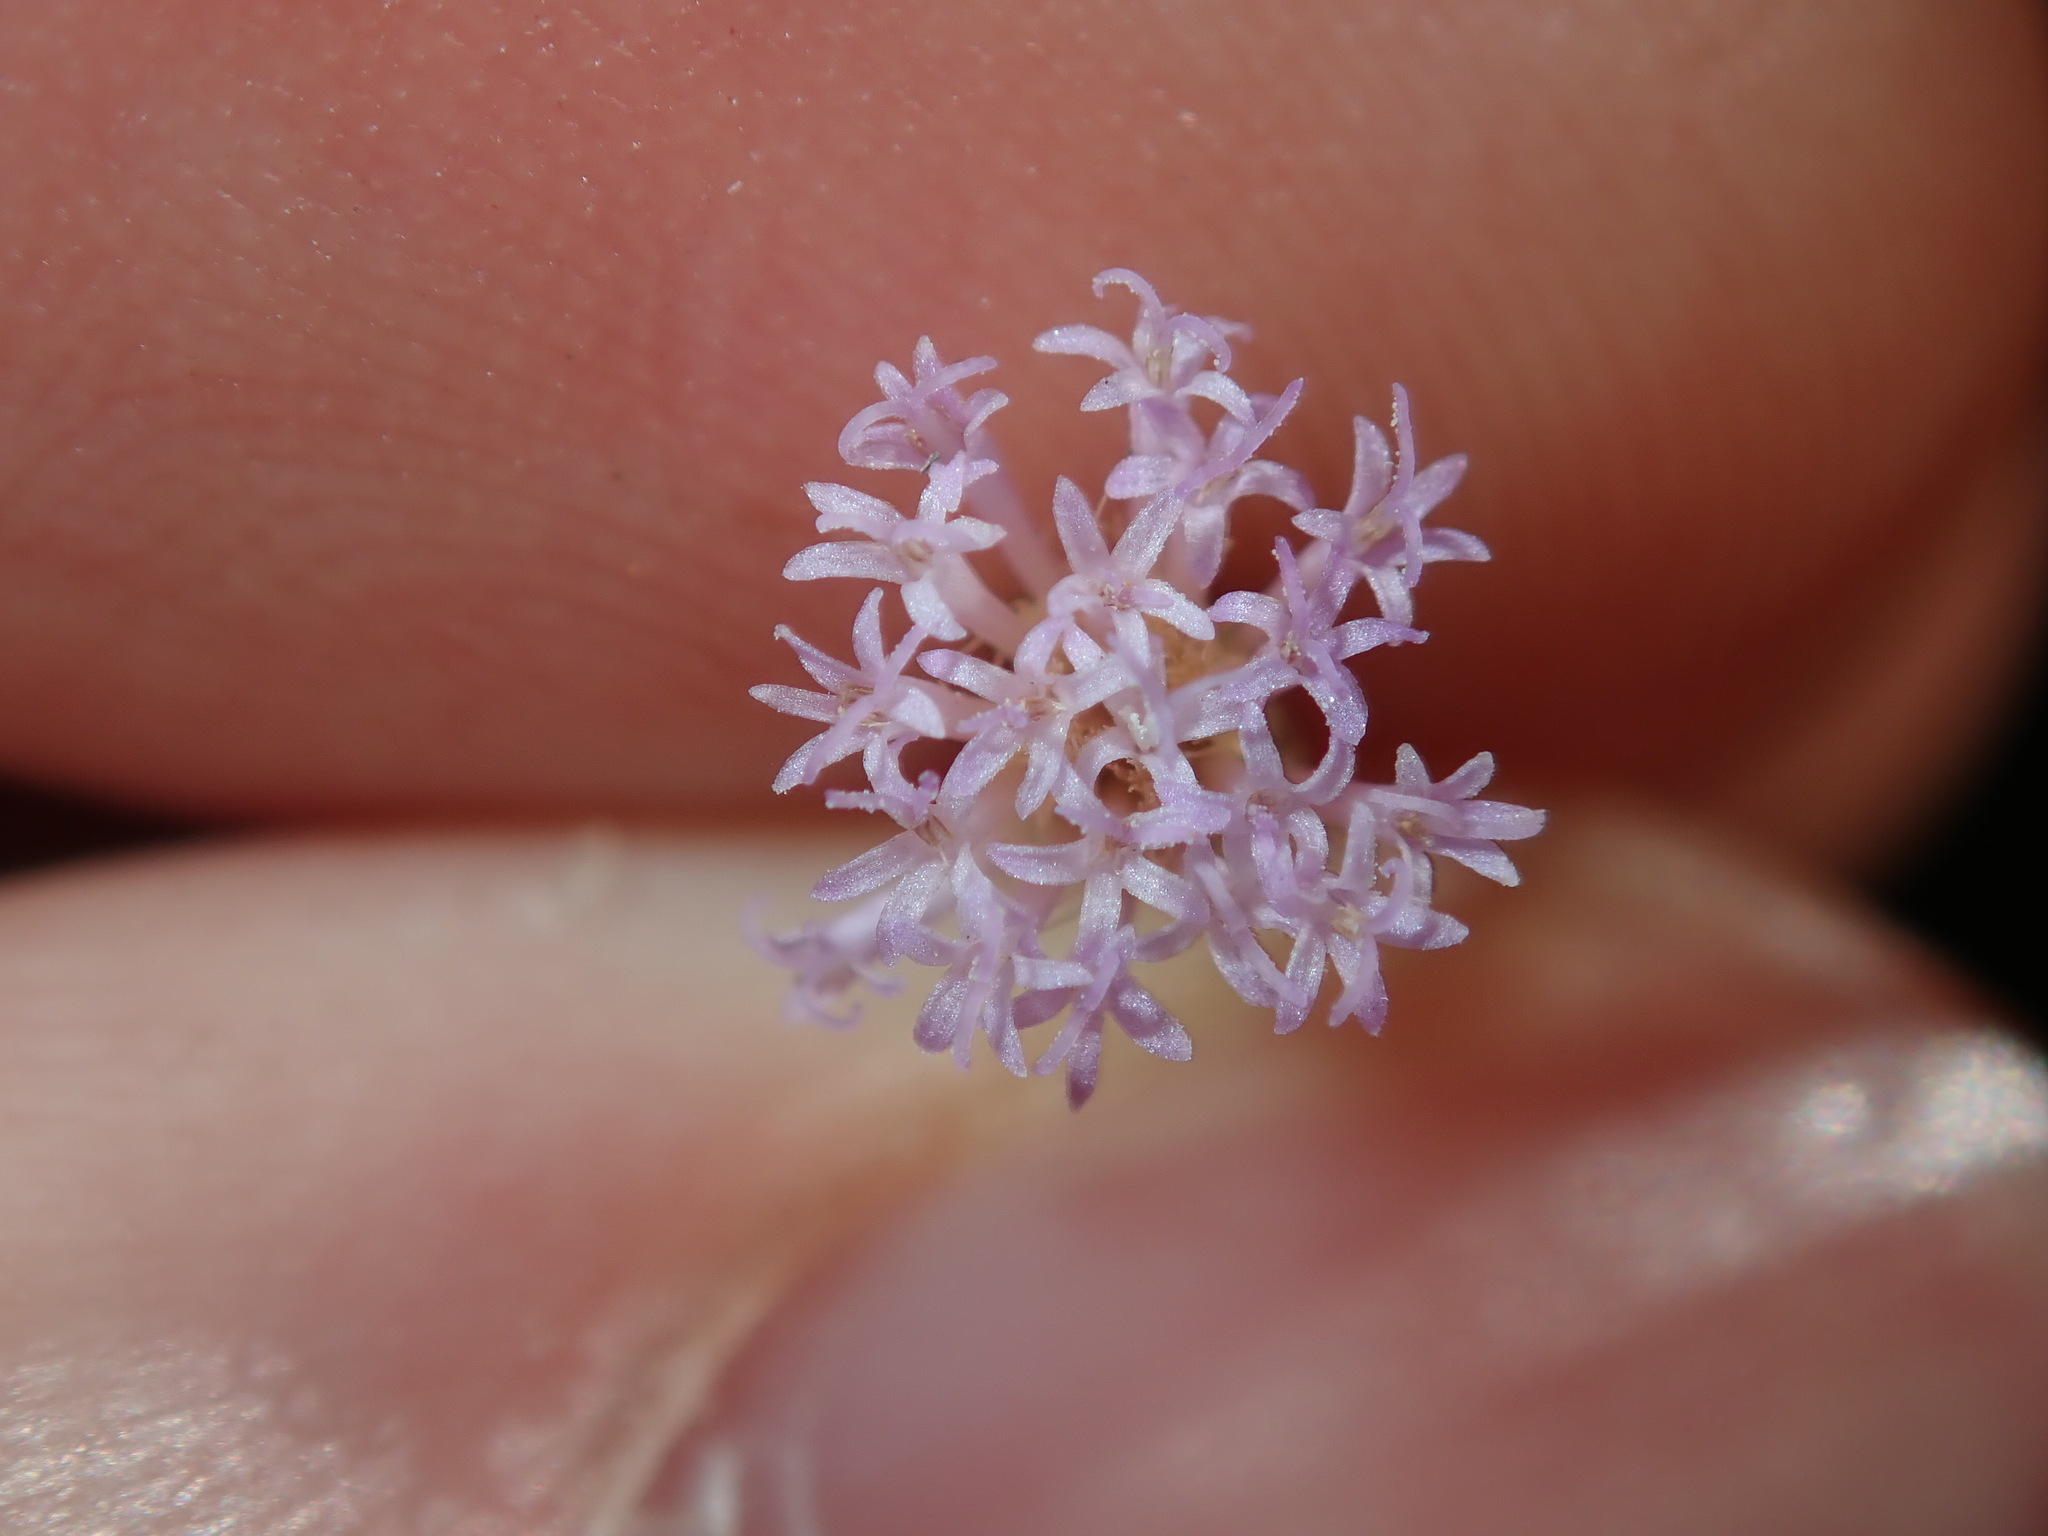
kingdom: Plantae
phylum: Tracheophyta
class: Magnoliopsida
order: Asterales
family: Asteraceae
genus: Cyanthillium
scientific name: Cyanthillium cinereum
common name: Little ironweed
